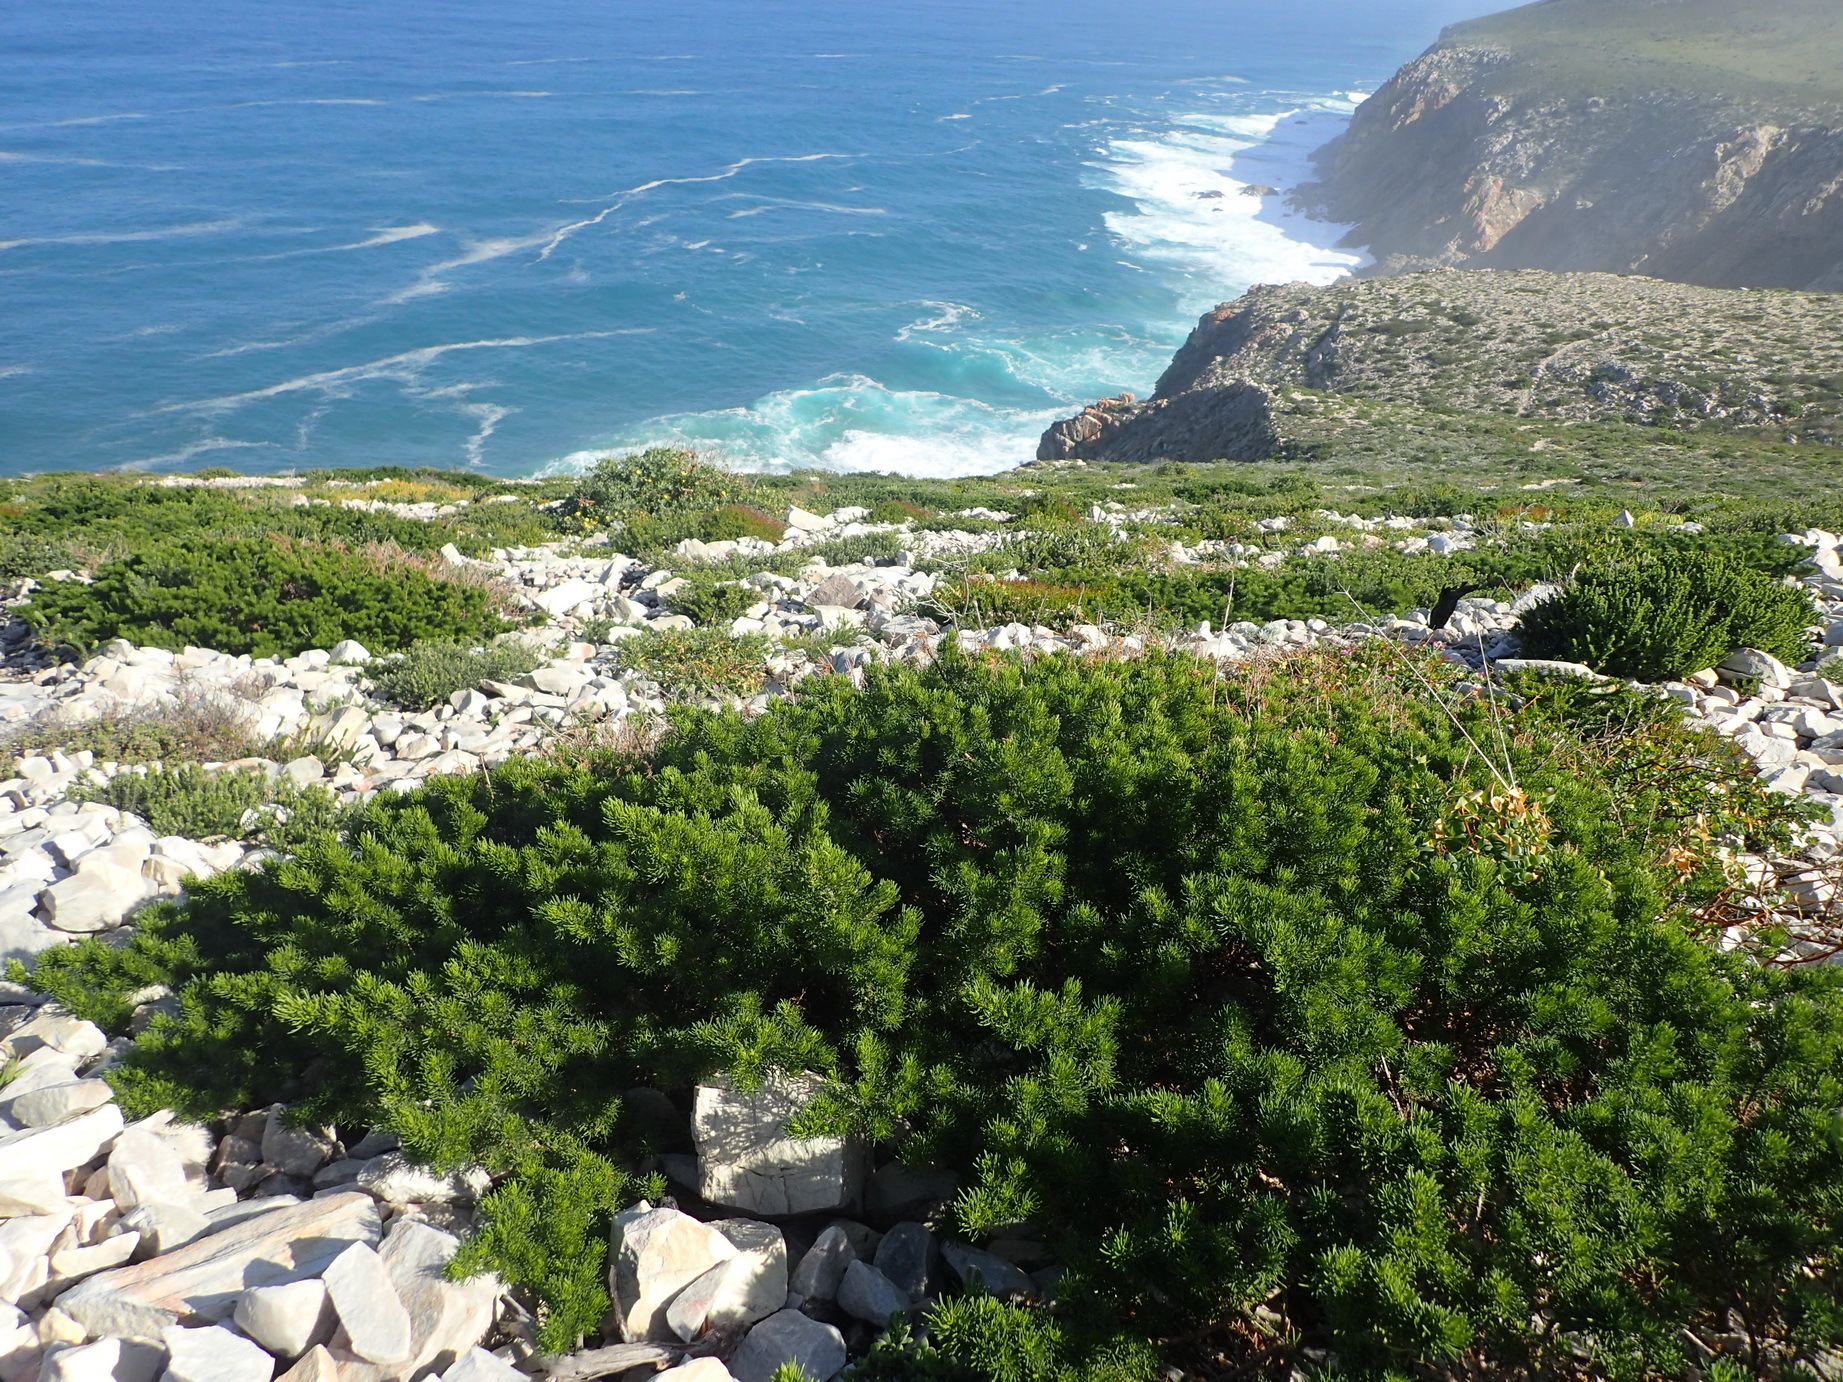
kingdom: Plantae
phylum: Tracheophyta
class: Magnoliopsida
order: Fabales
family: Fabaceae
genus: Psoralea
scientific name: Psoralea vanberkelae
